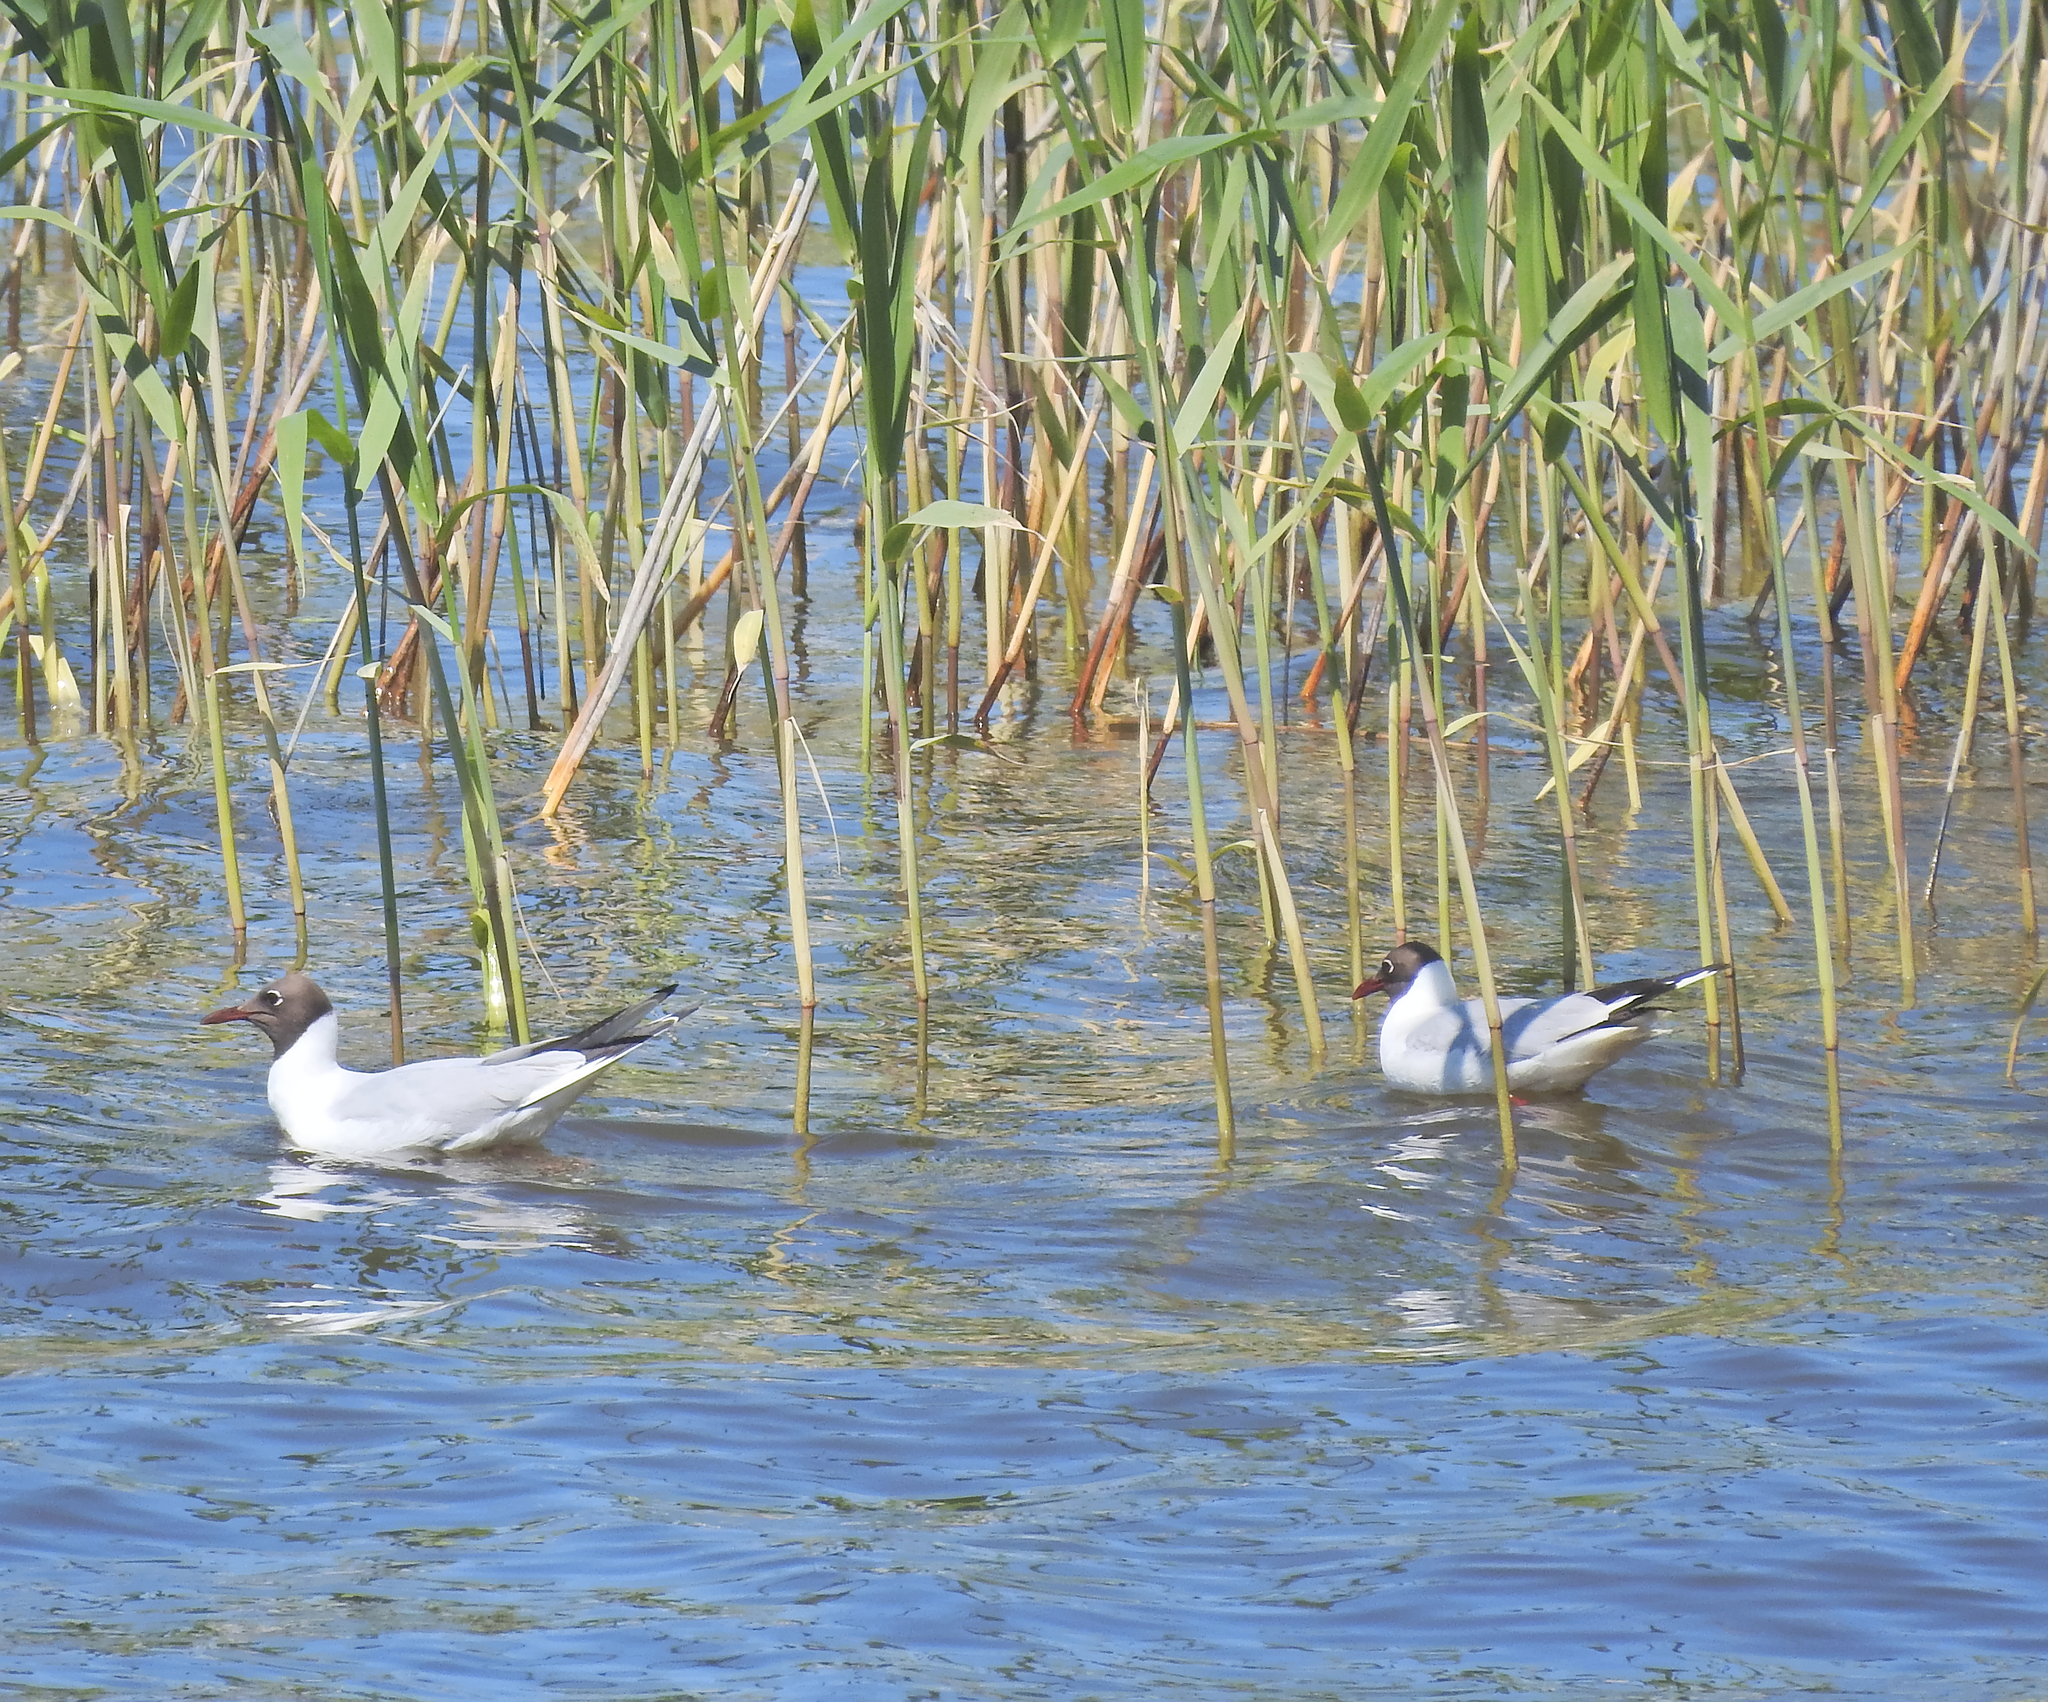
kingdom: Animalia
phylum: Chordata
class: Aves
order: Charadriiformes
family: Laridae
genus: Chroicocephalus
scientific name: Chroicocephalus ridibundus
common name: Black-headed gull
